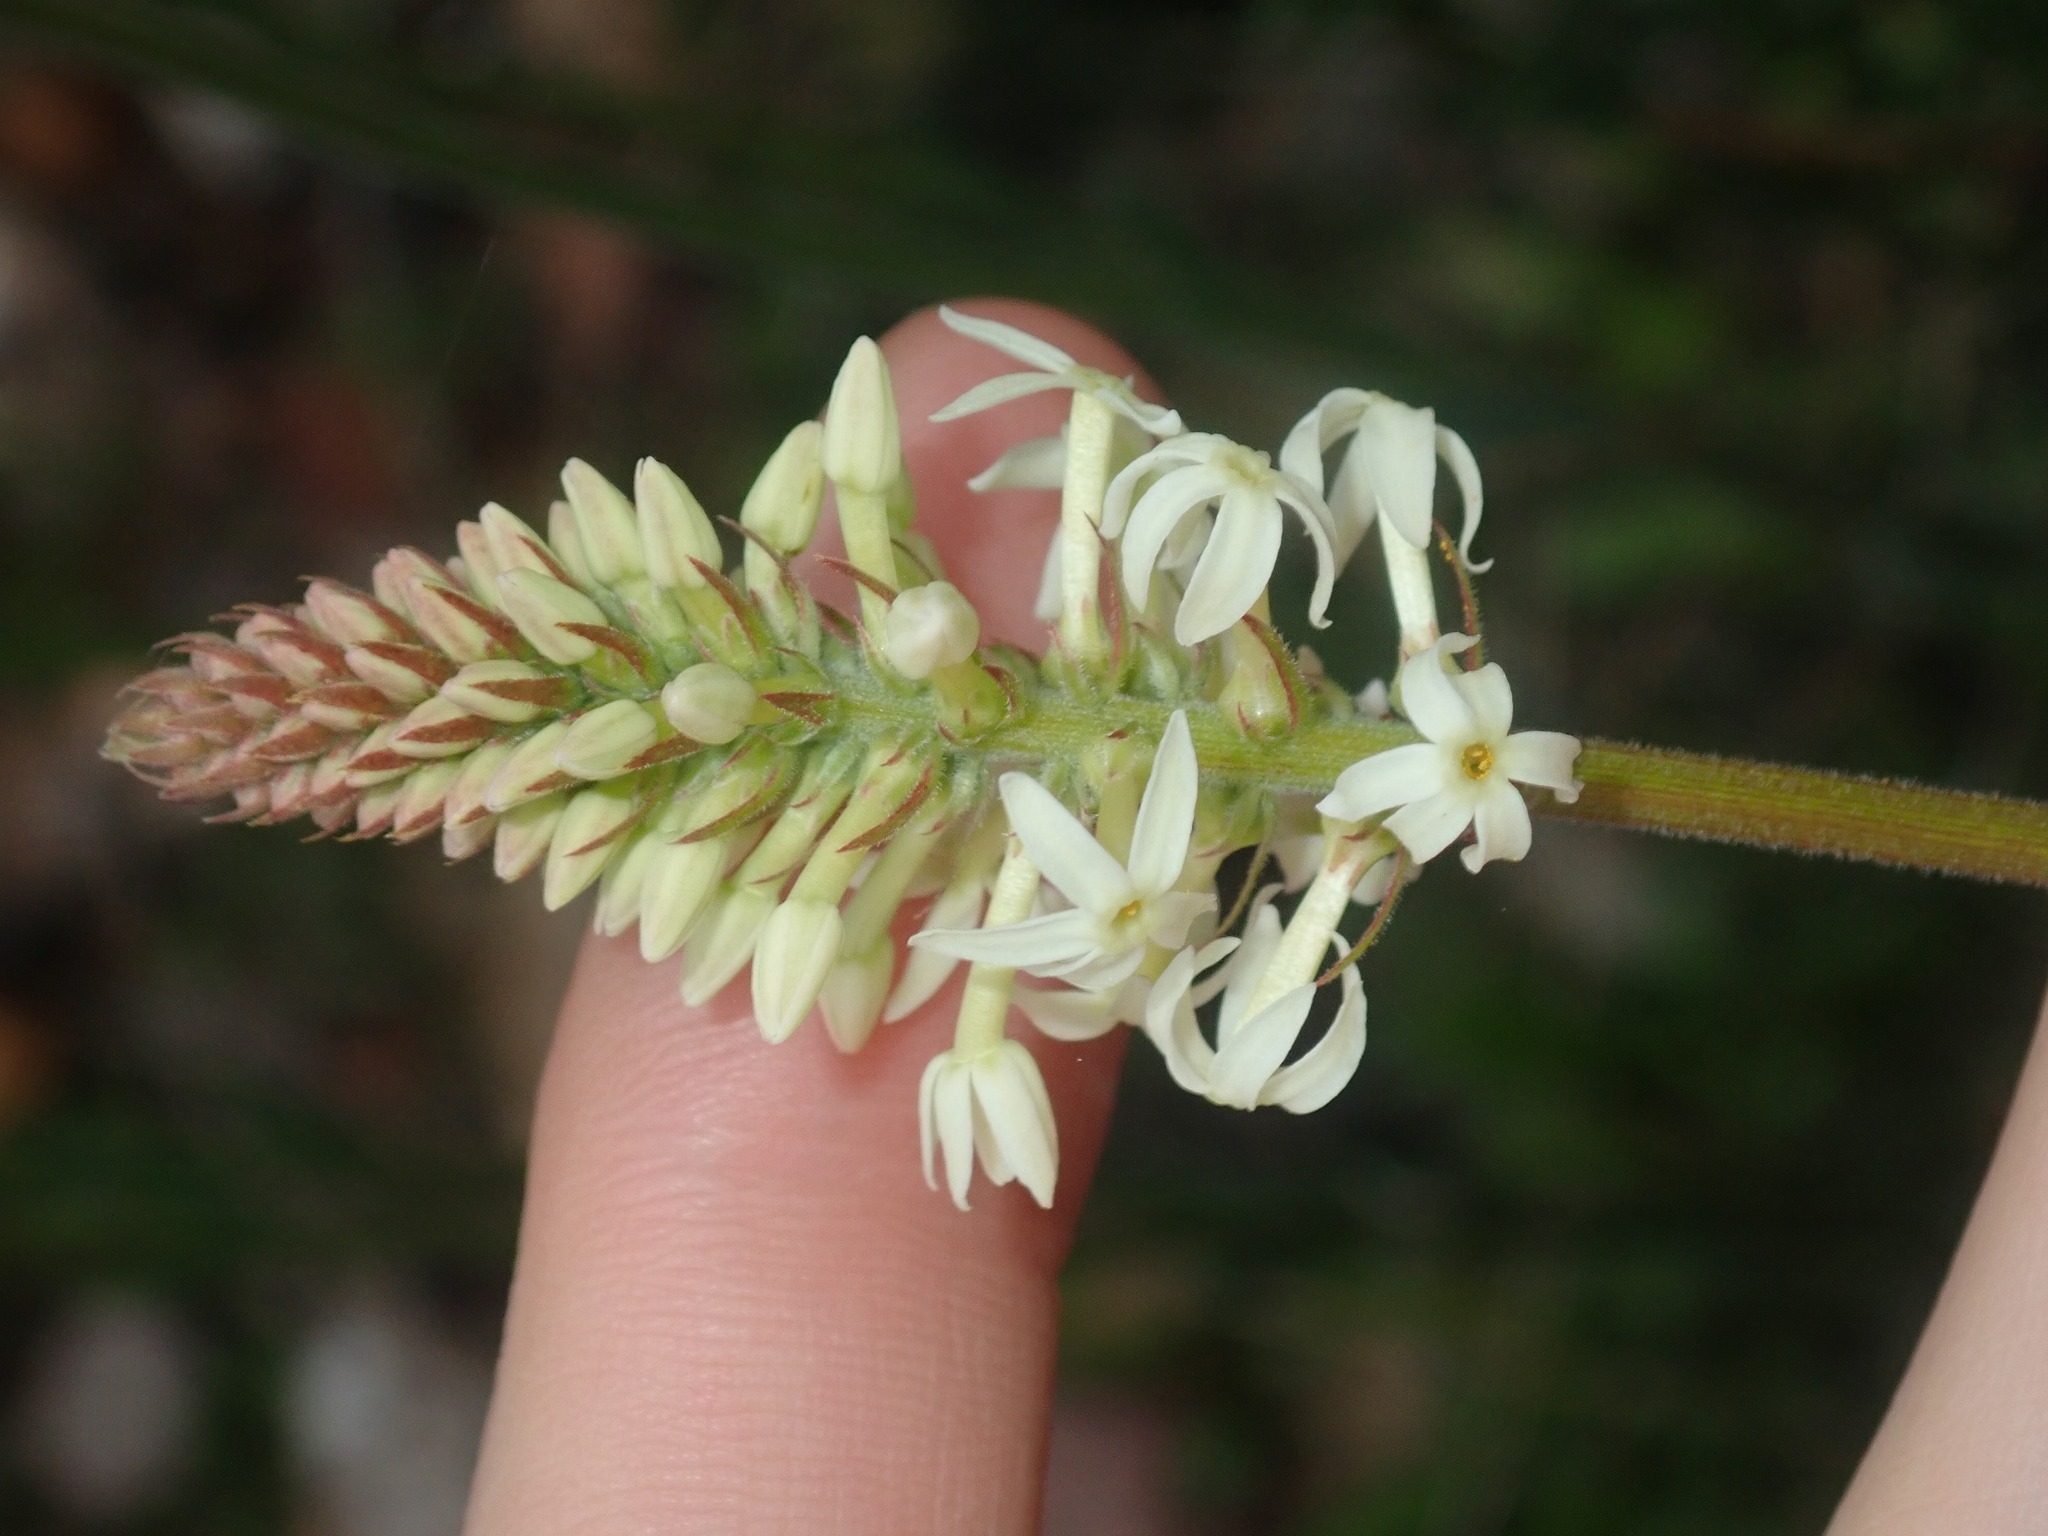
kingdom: Plantae
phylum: Tracheophyta
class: Magnoliopsida
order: Celastrales
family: Celastraceae
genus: Stackhousia
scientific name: Stackhousia monogyna
